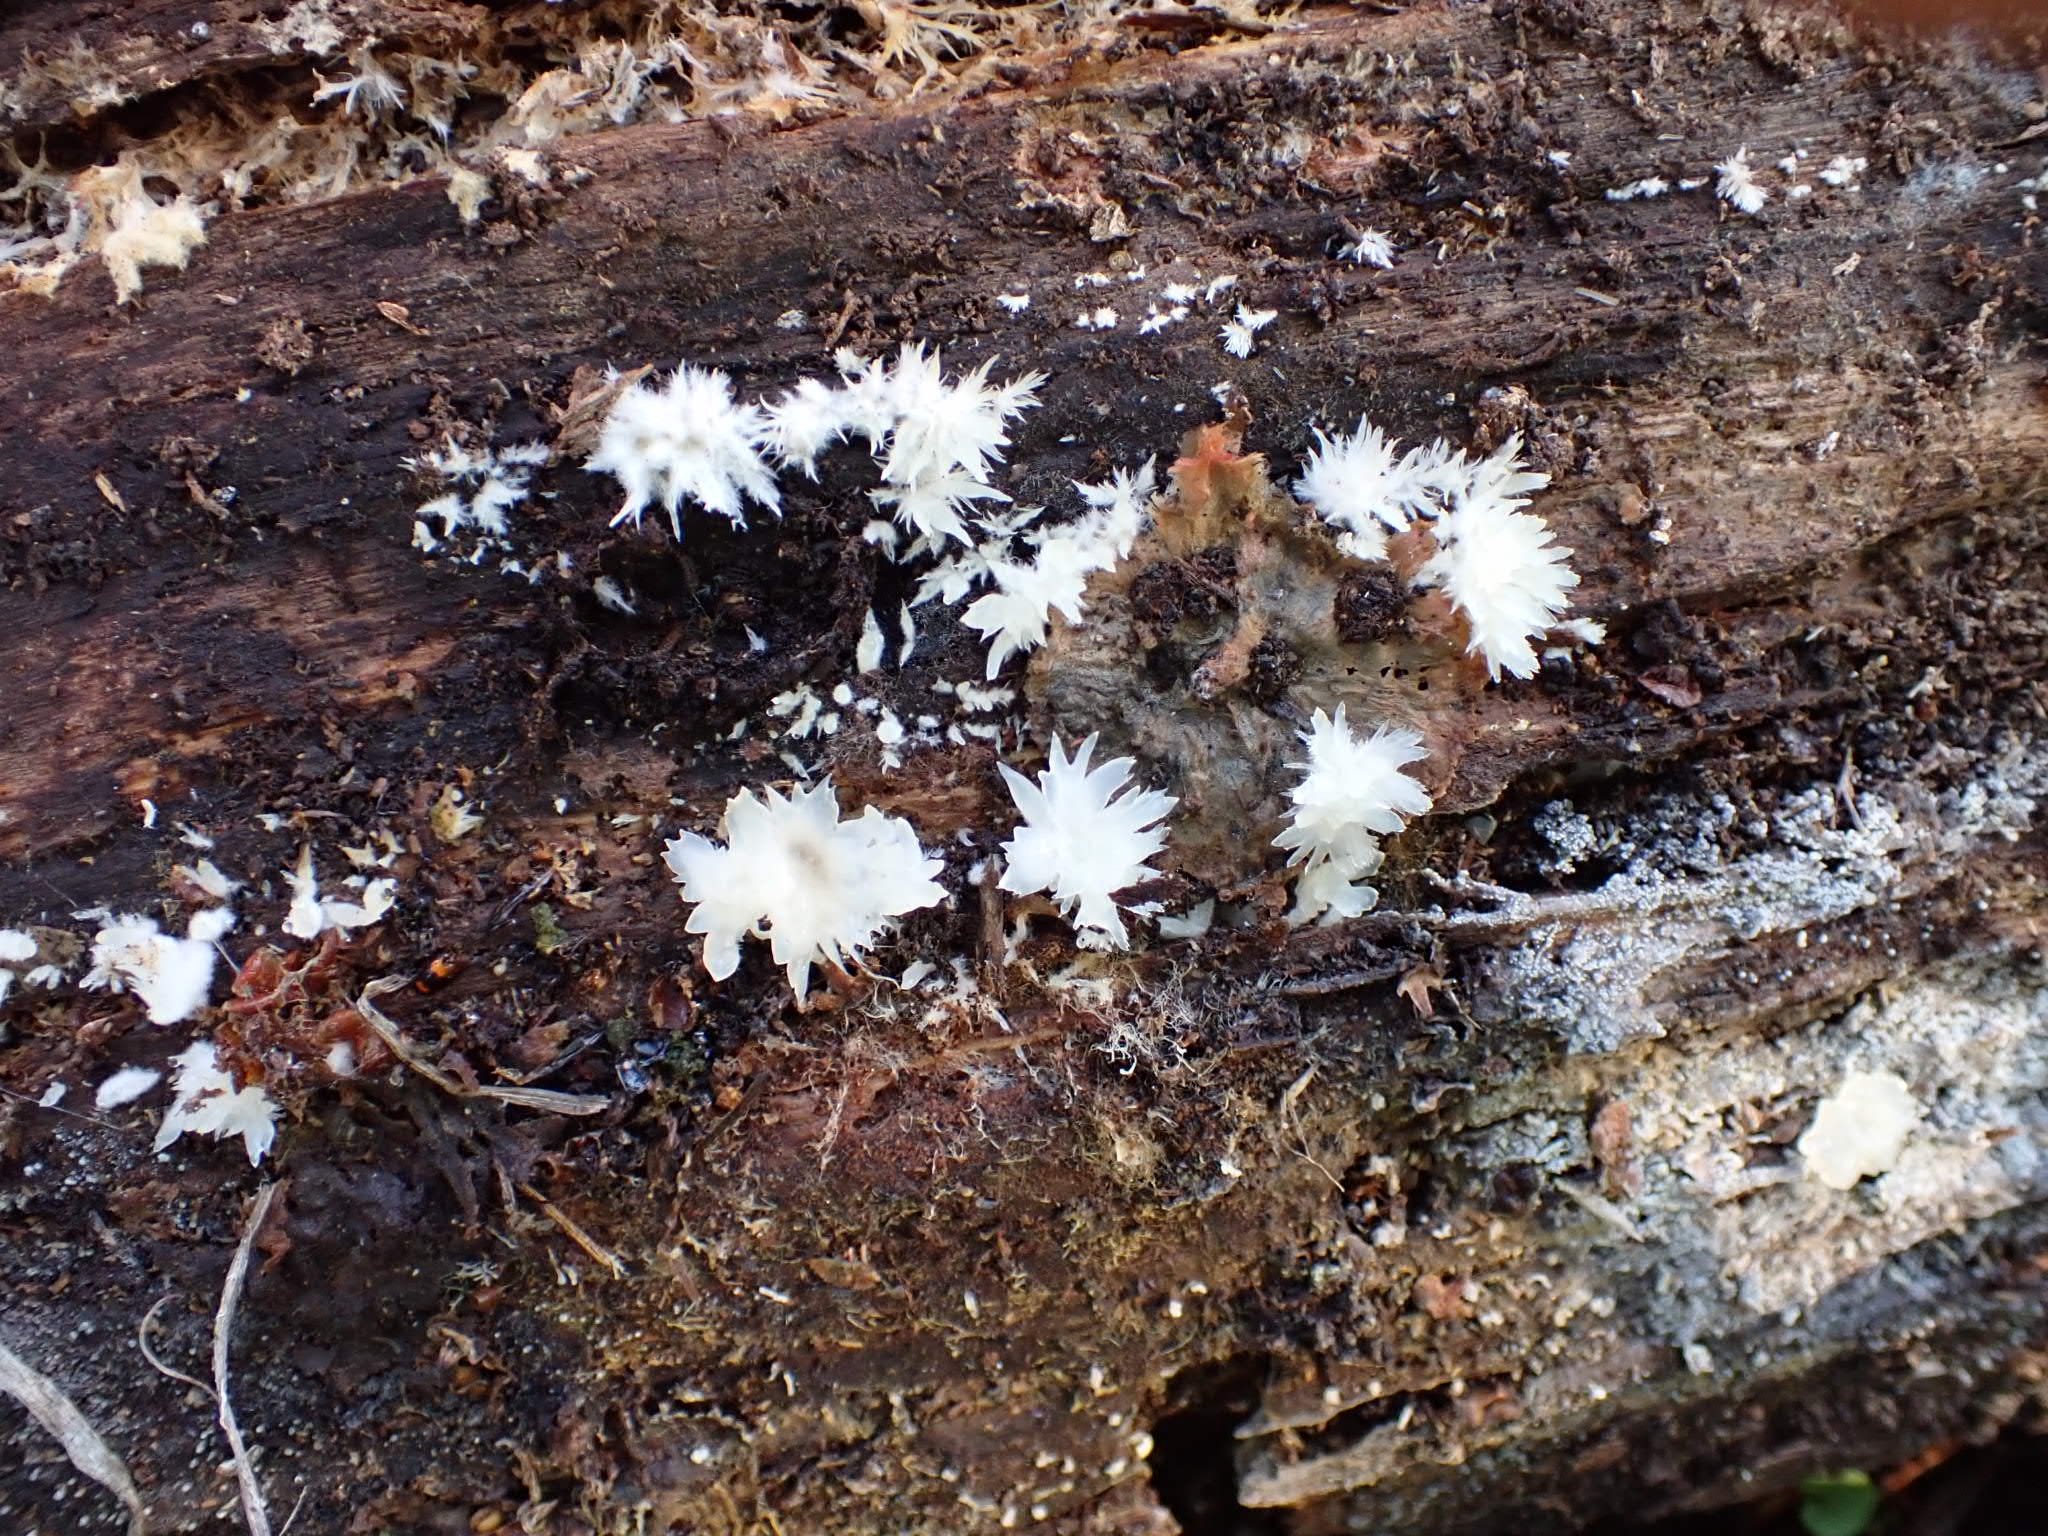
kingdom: Fungi
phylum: Basidiomycota
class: Agaricomycetes
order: Russulales
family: Hericiaceae
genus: Hericium
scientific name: Hericium coralloides
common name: Coral tooth
